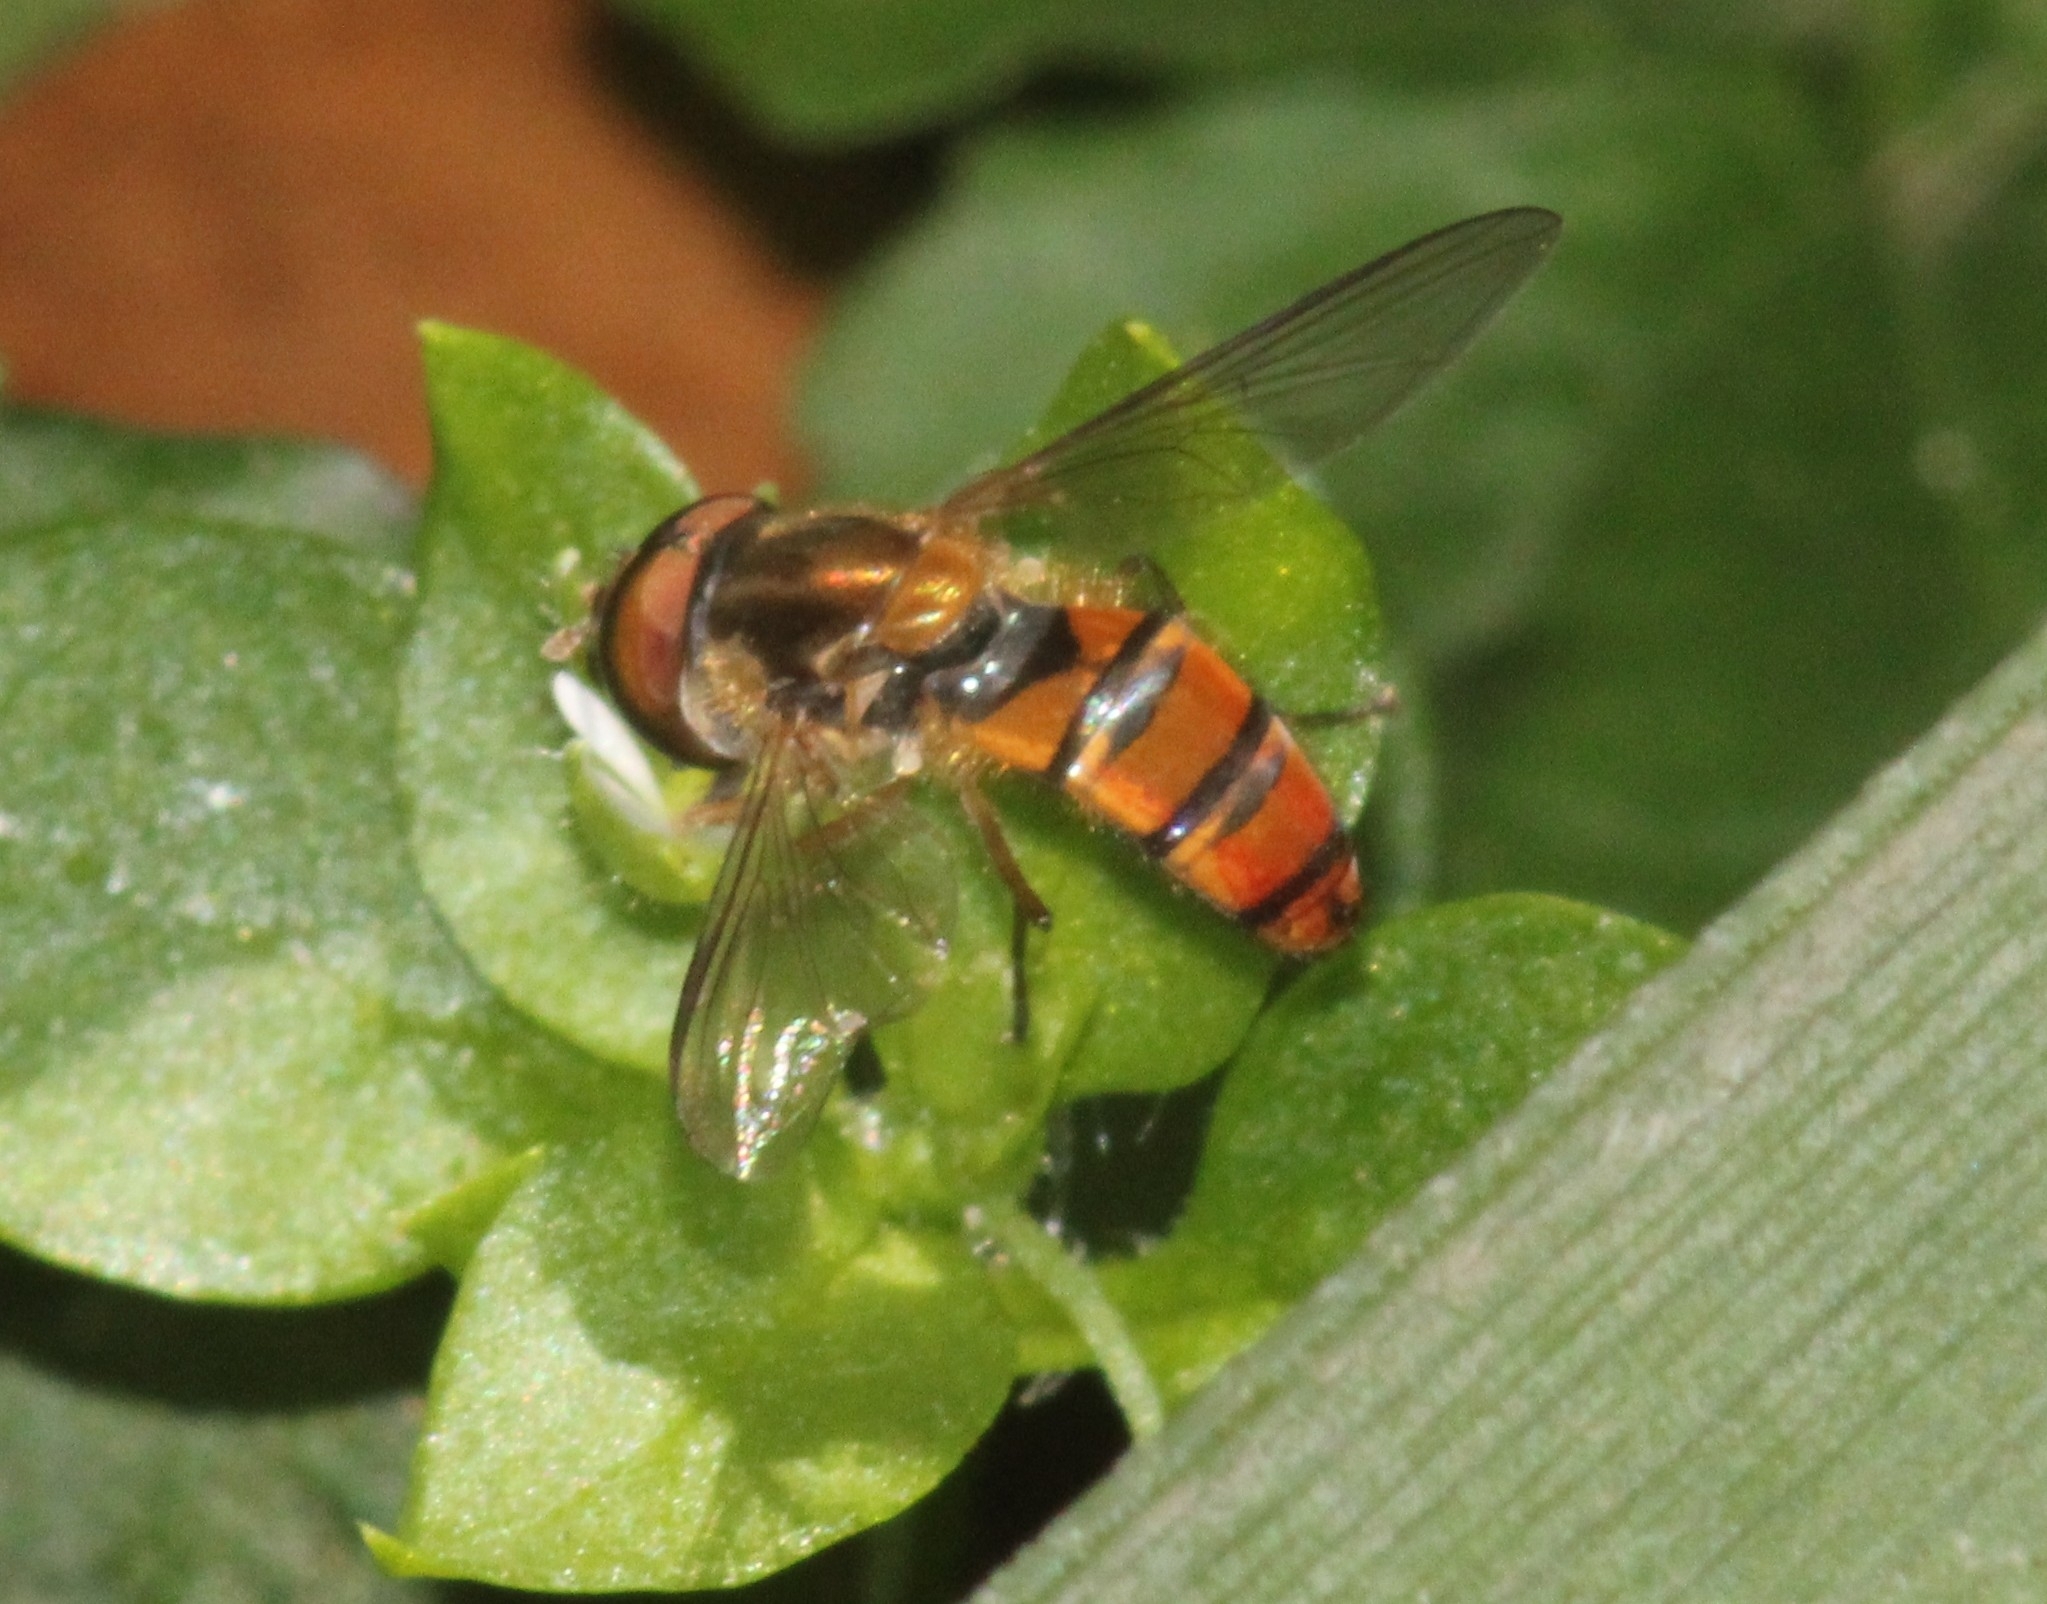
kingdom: Animalia
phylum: Arthropoda
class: Insecta
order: Diptera
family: Syrphidae
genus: Episyrphus
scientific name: Episyrphus trisectus
